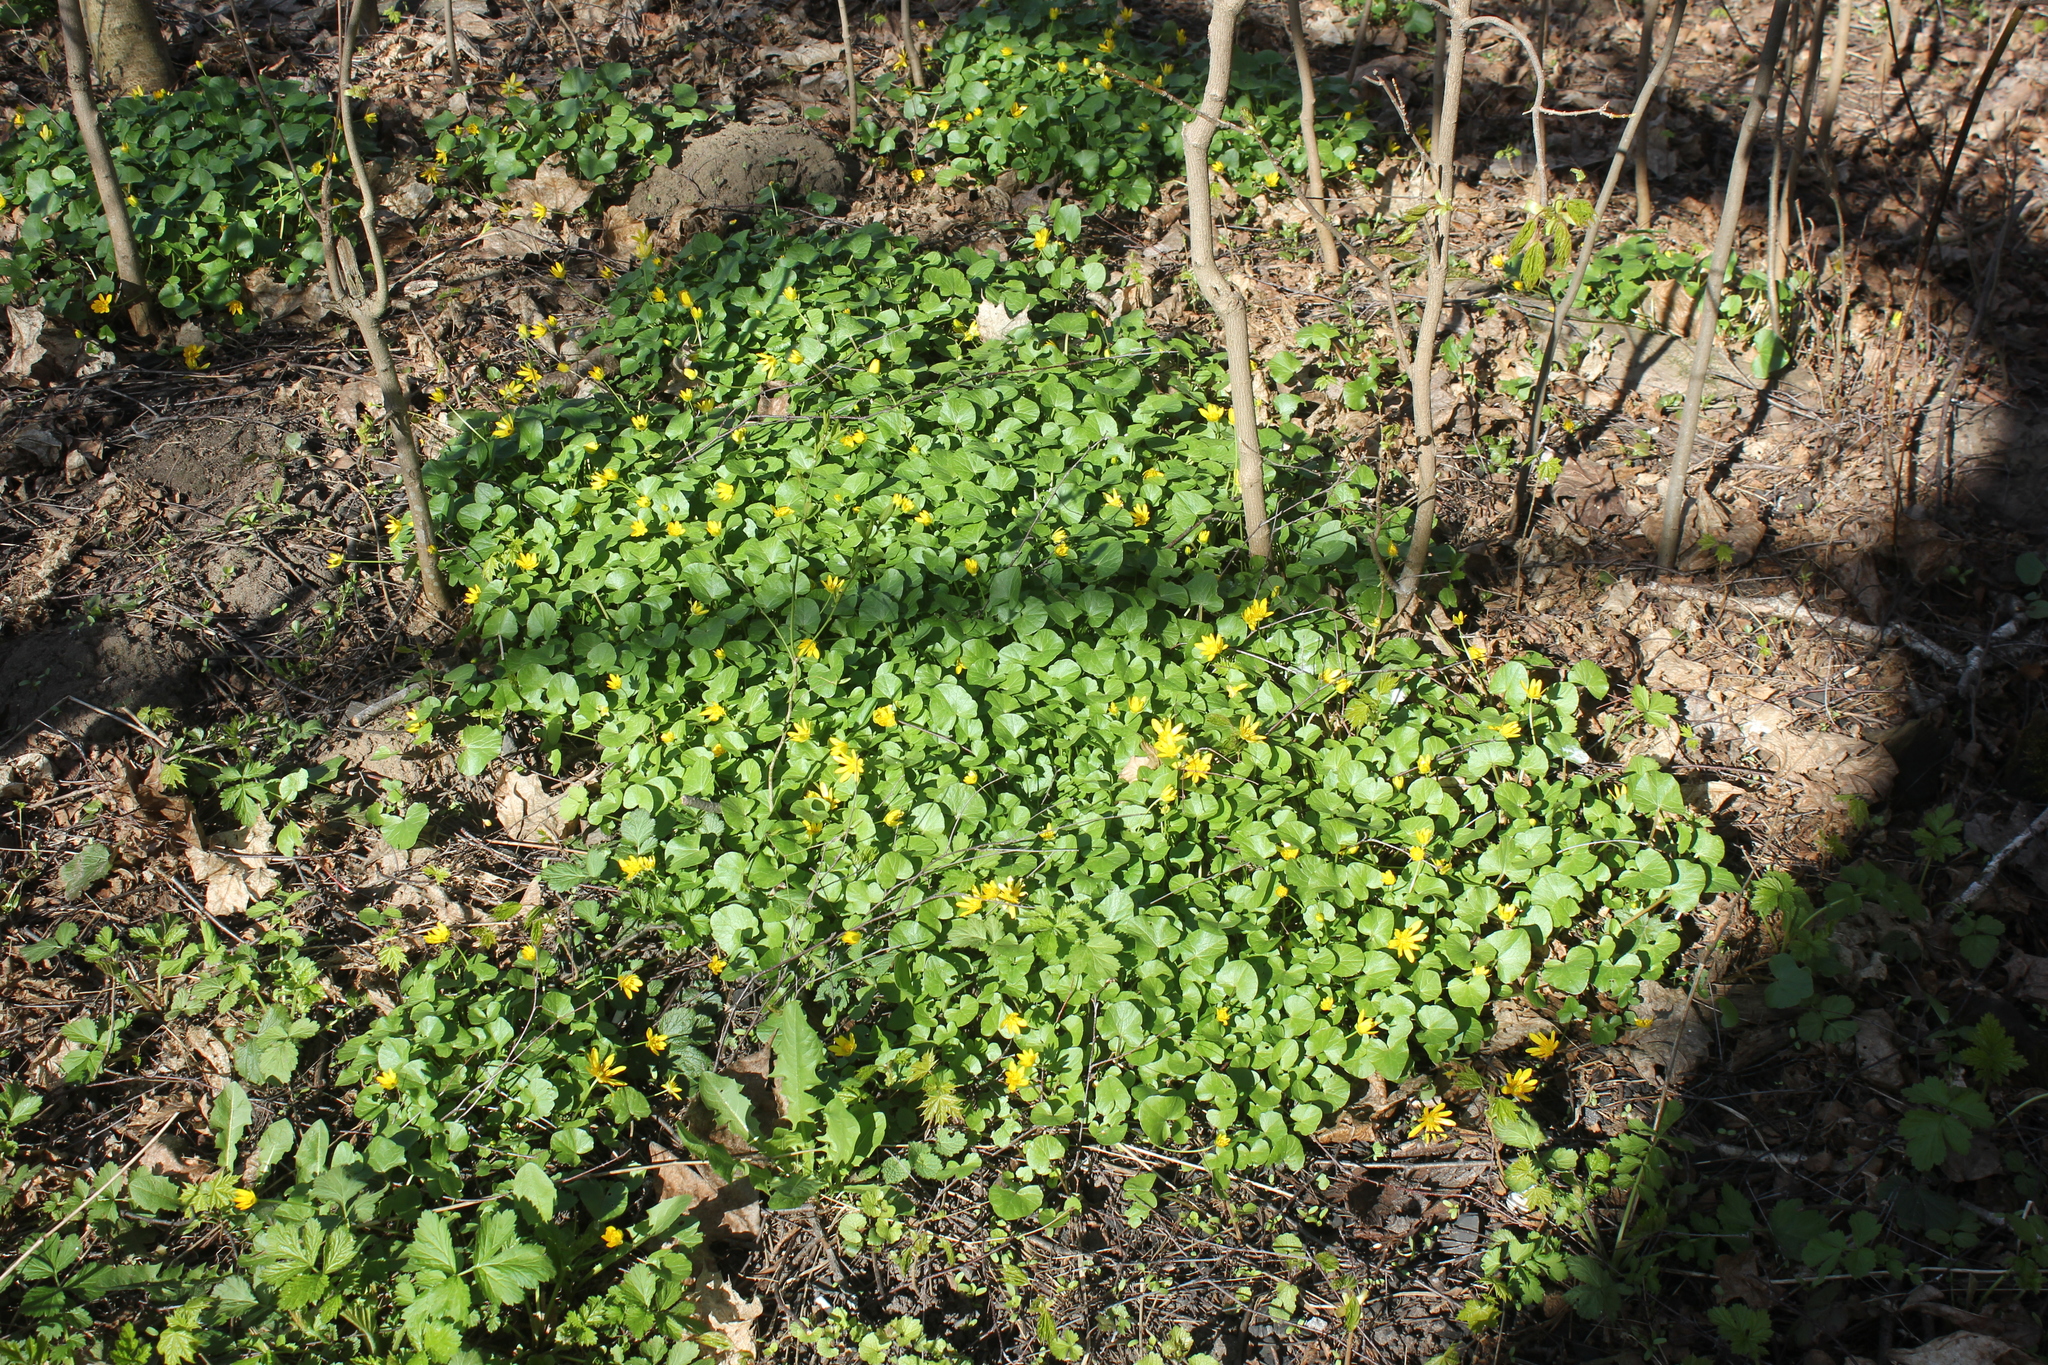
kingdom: Plantae
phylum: Tracheophyta
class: Magnoliopsida
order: Ranunculales
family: Ranunculaceae
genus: Ficaria
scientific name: Ficaria verna
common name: Lesser celandine
